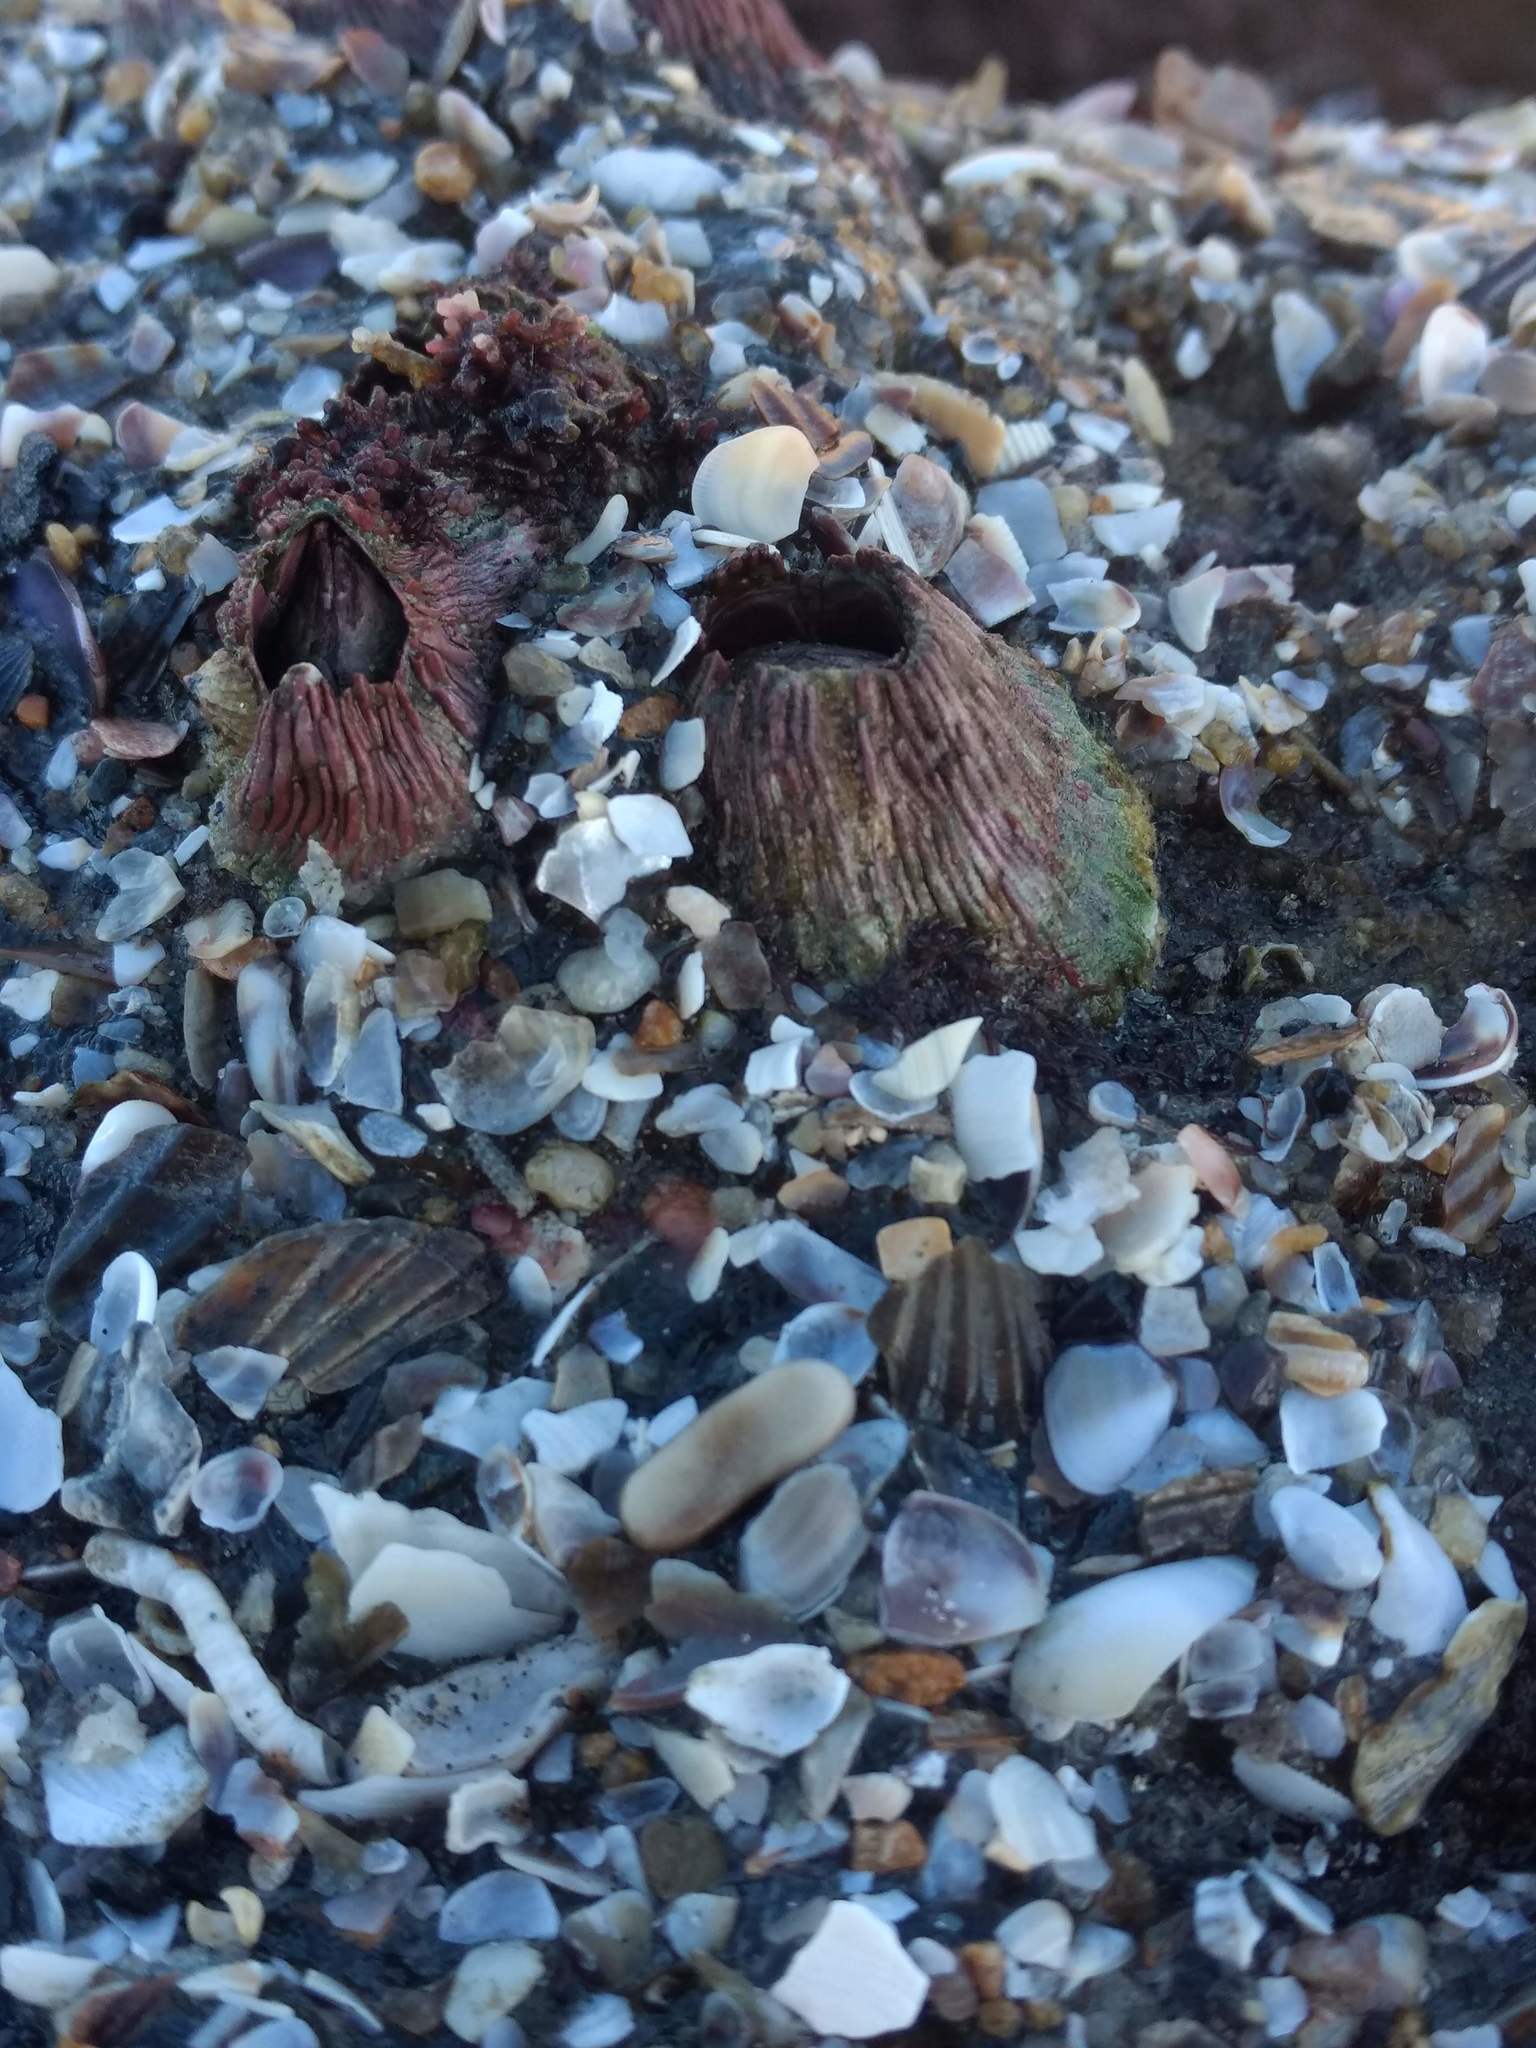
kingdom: Animalia
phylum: Arthropoda
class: Maxillopoda
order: Sessilia
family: Tetraclitidae
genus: Tetraclita
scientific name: Tetraclita rubescens
